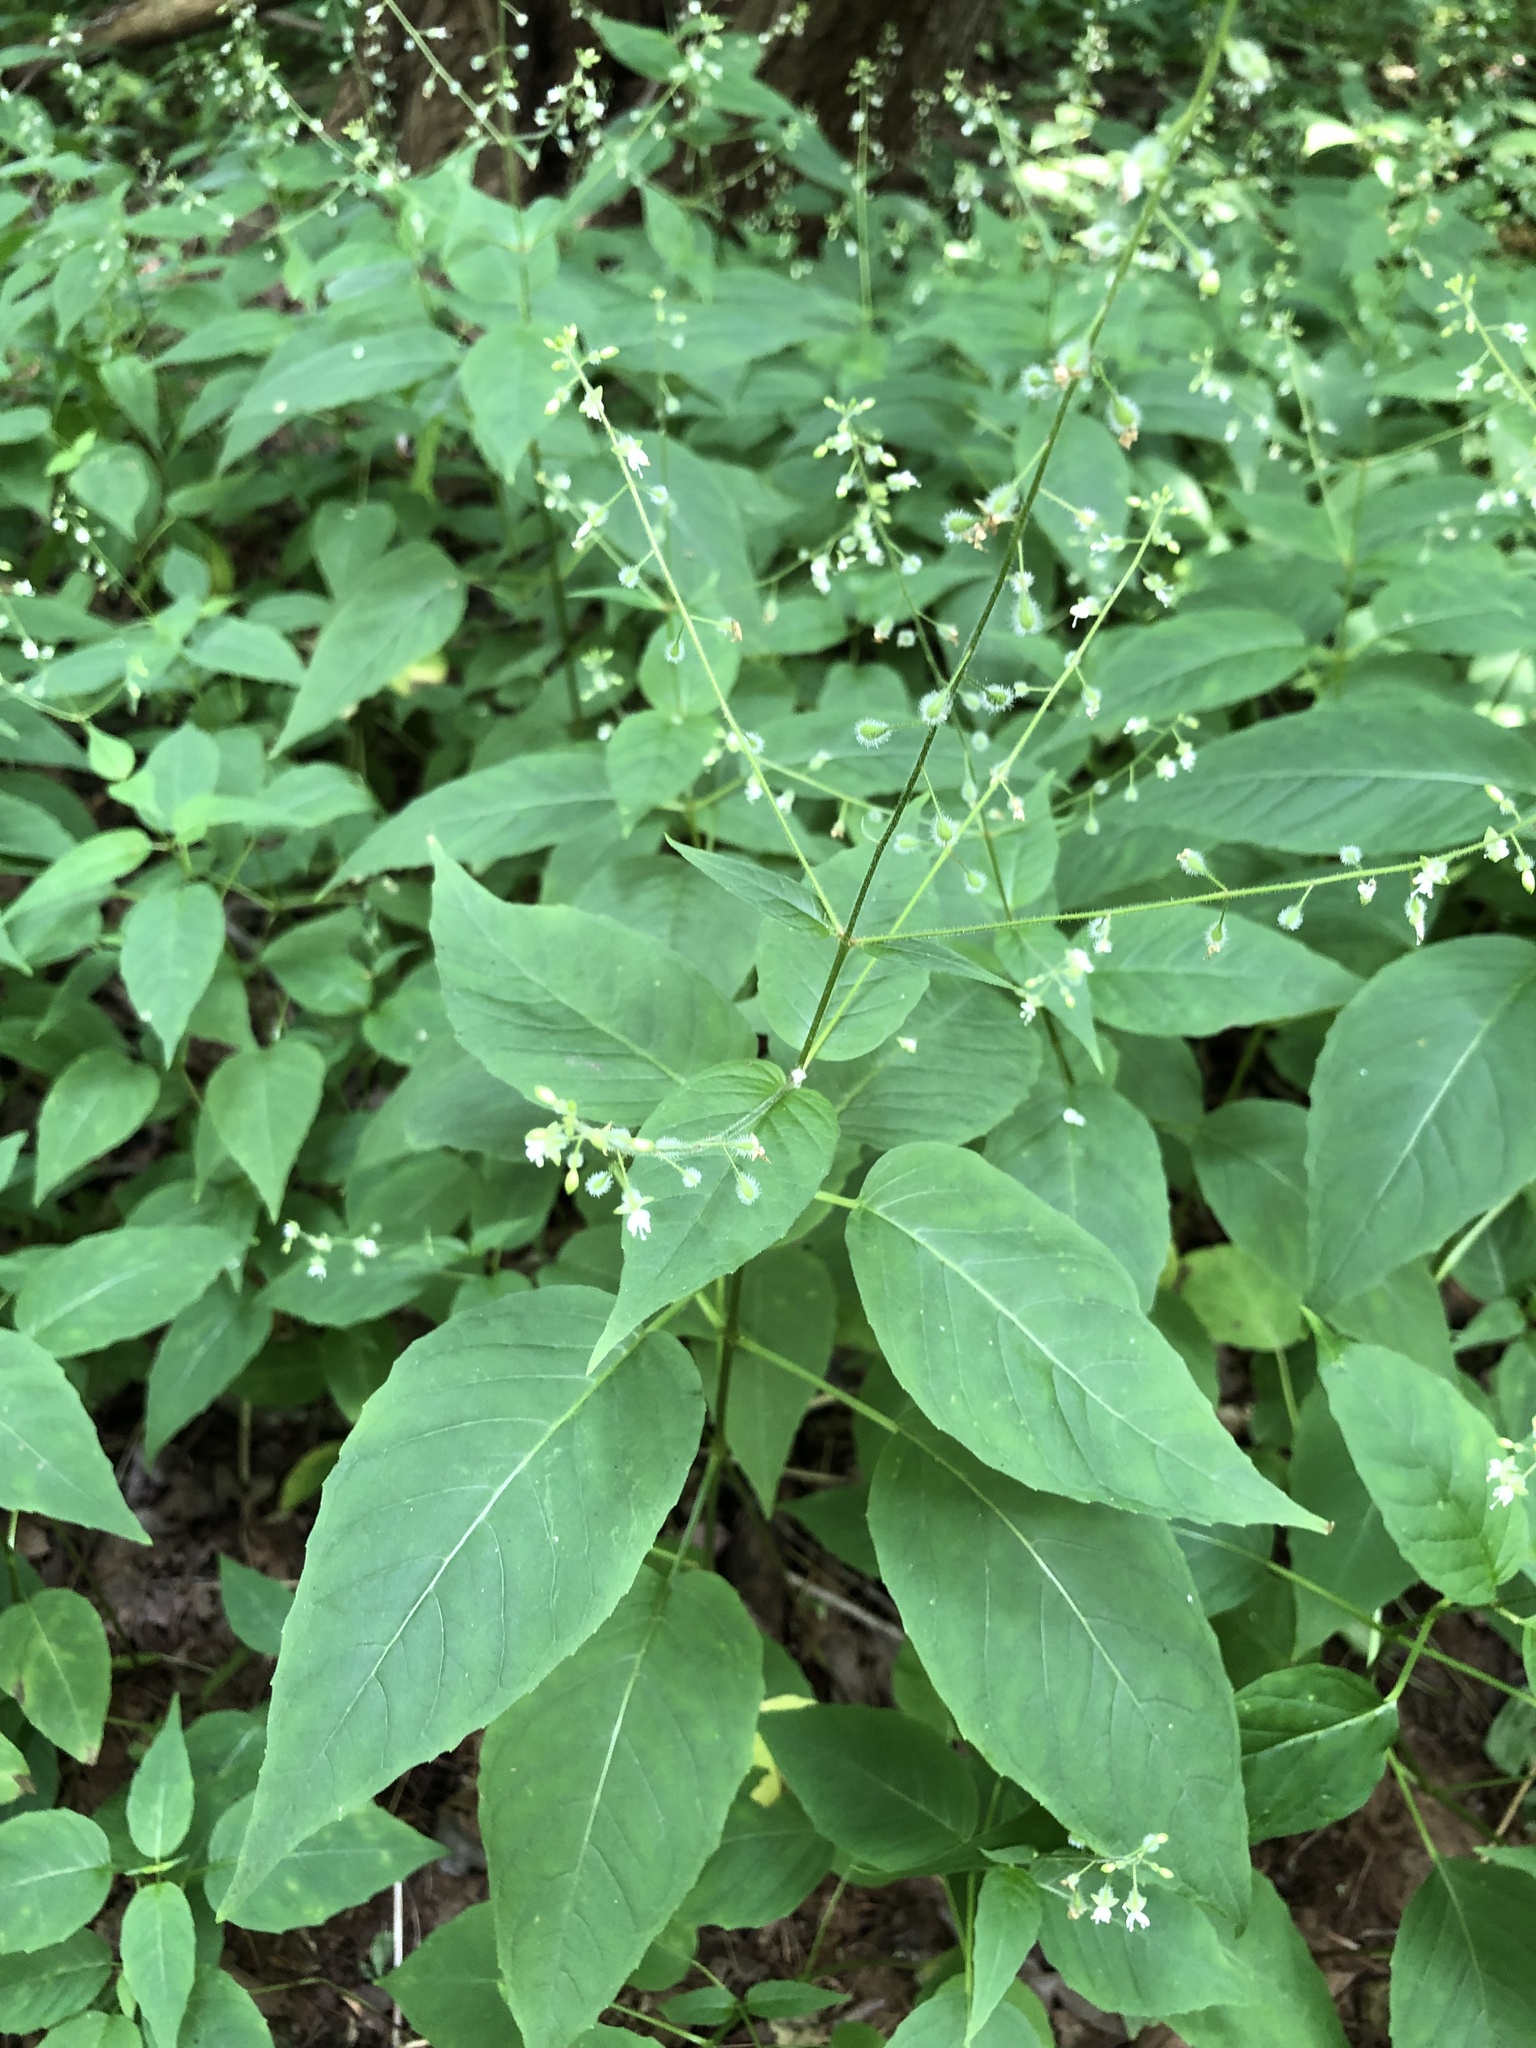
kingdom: Plantae
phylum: Tracheophyta
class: Magnoliopsida
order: Myrtales
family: Onagraceae
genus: Circaea
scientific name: Circaea canadensis
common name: Broad-leaved enchanter's nightshade
